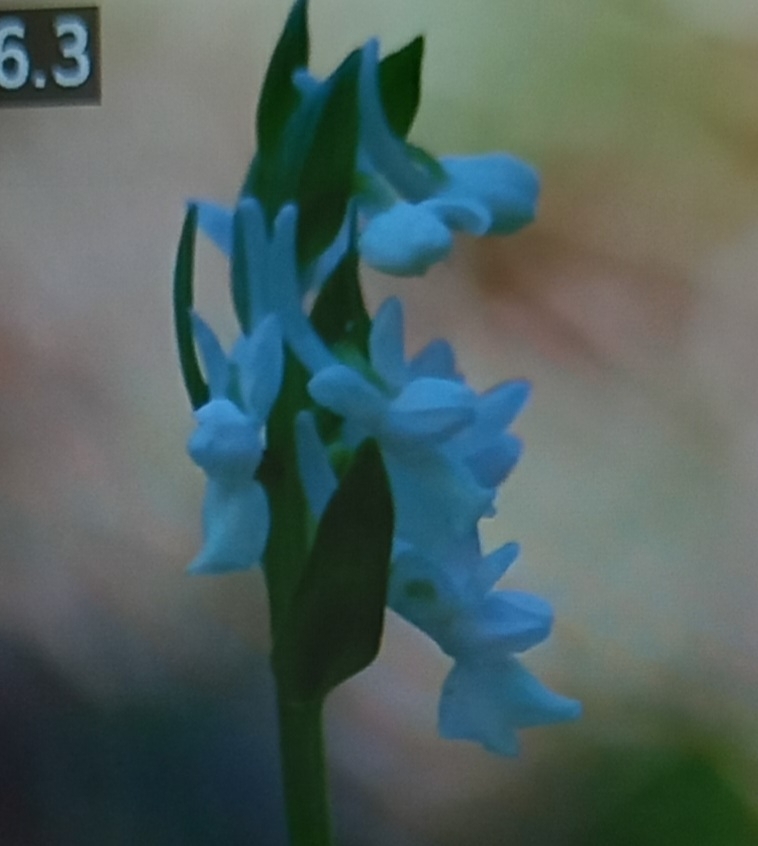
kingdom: Plantae
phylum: Tracheophyta
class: Liliopsida
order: Asparagales
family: Orchidaceae
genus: Dactylorhiza
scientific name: Dactylorhiza romana
